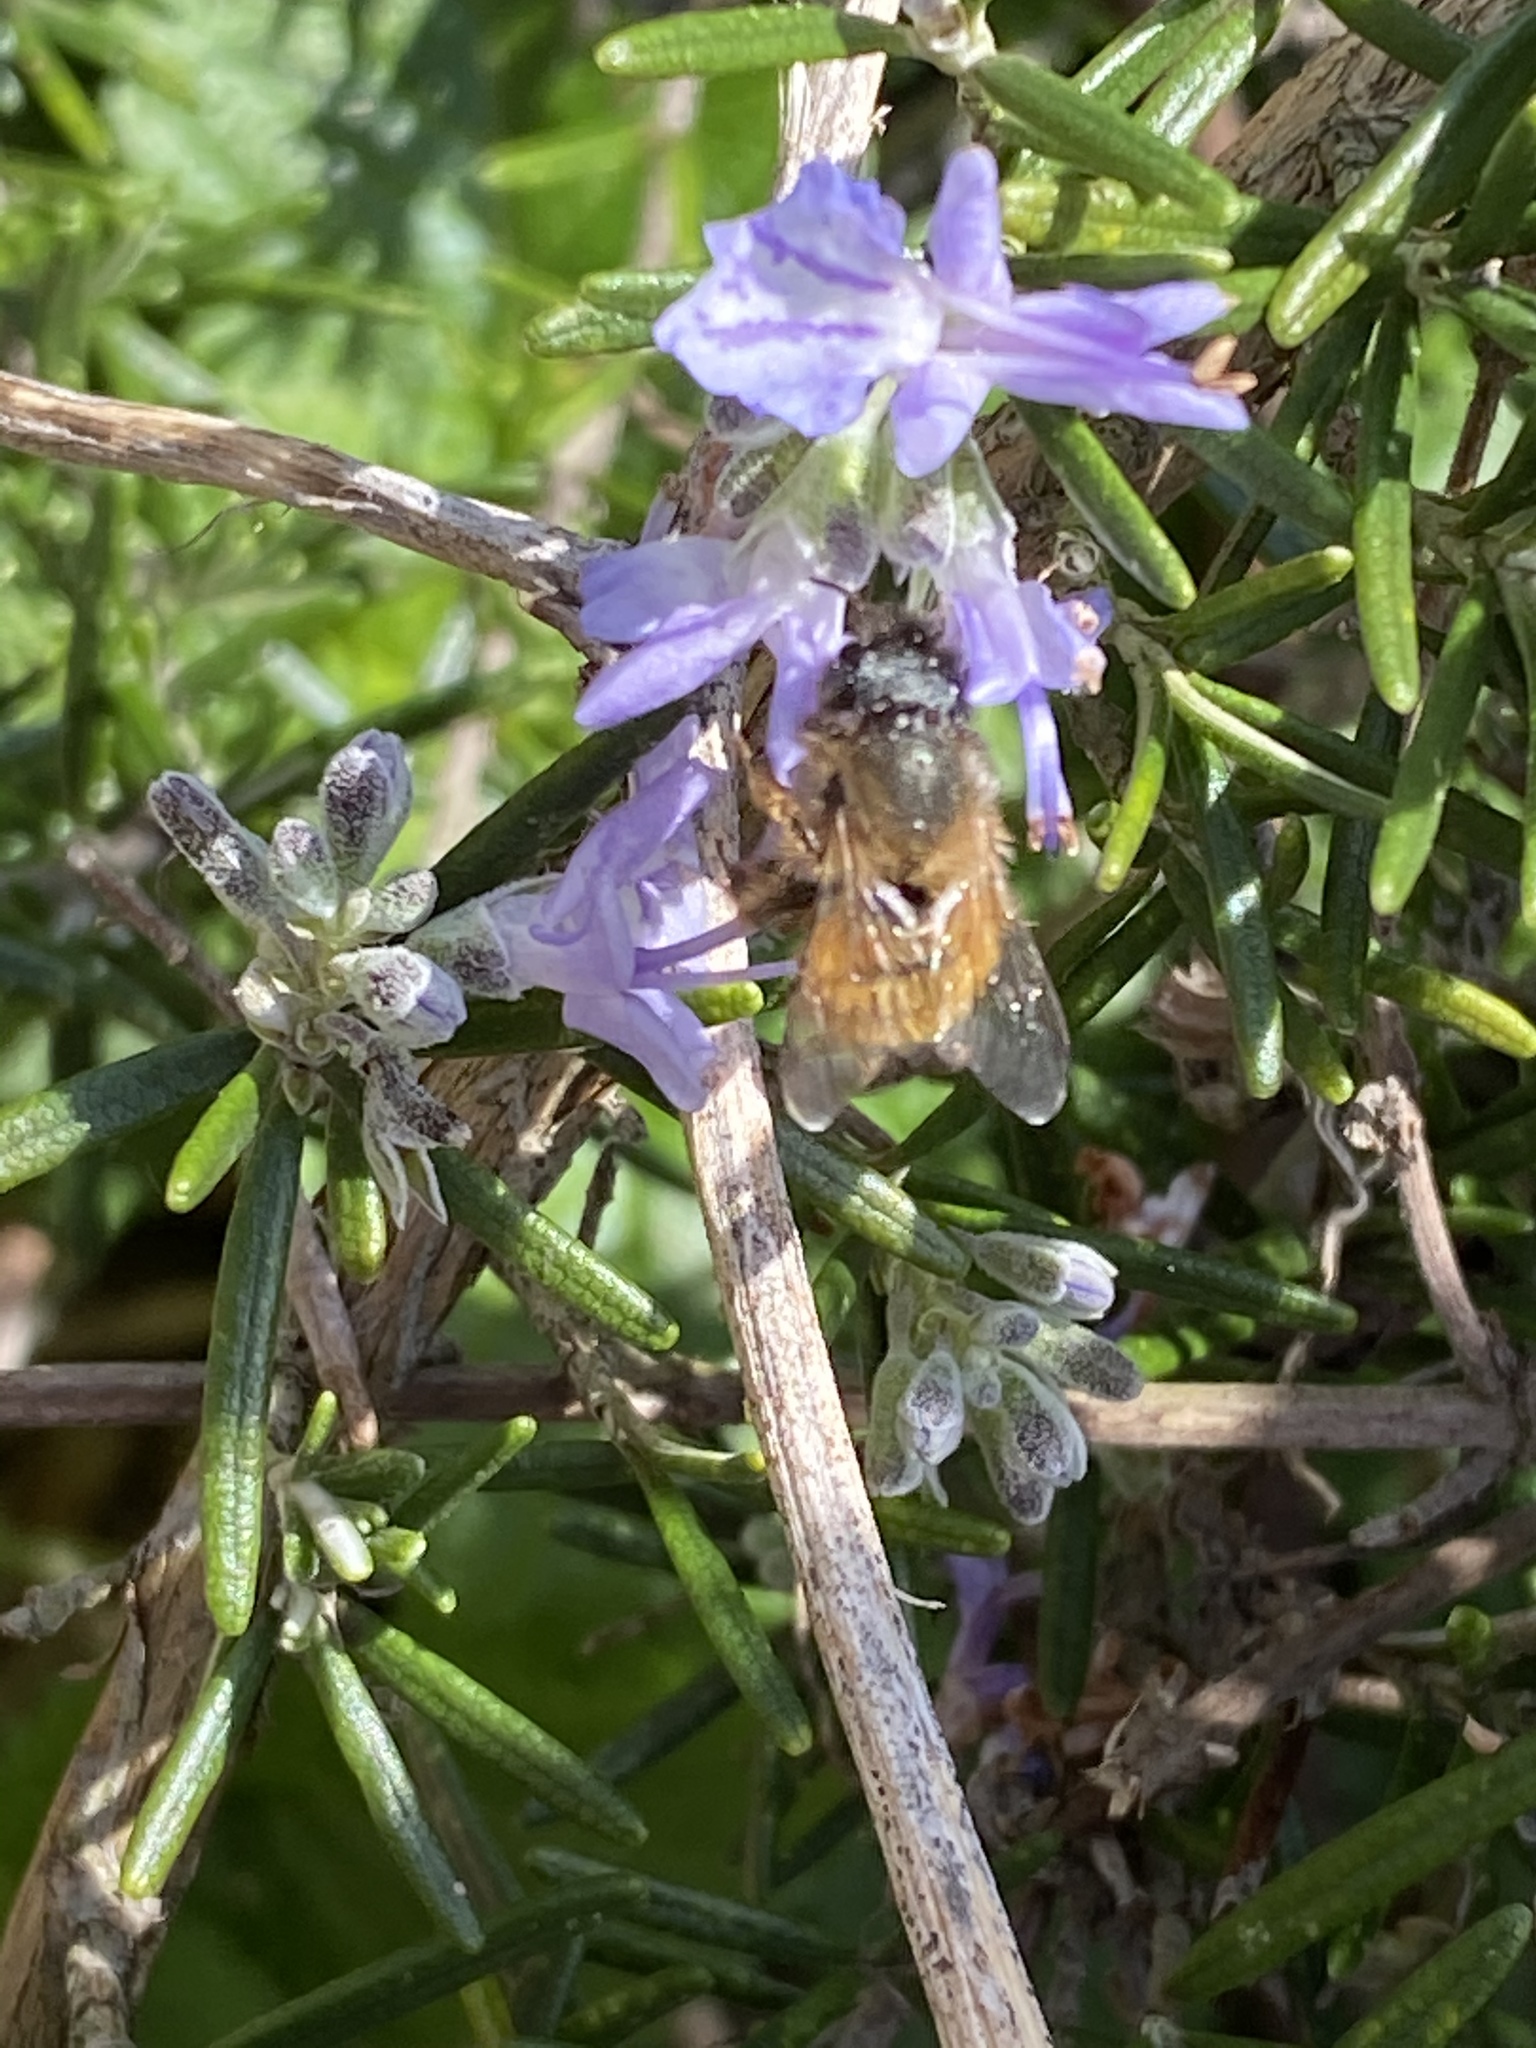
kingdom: Animalia
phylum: Arthropoda
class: Insecta
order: Hymenoptera
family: Megachilidae
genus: Osmia
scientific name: Osmia bicornis
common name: Red mason bee
